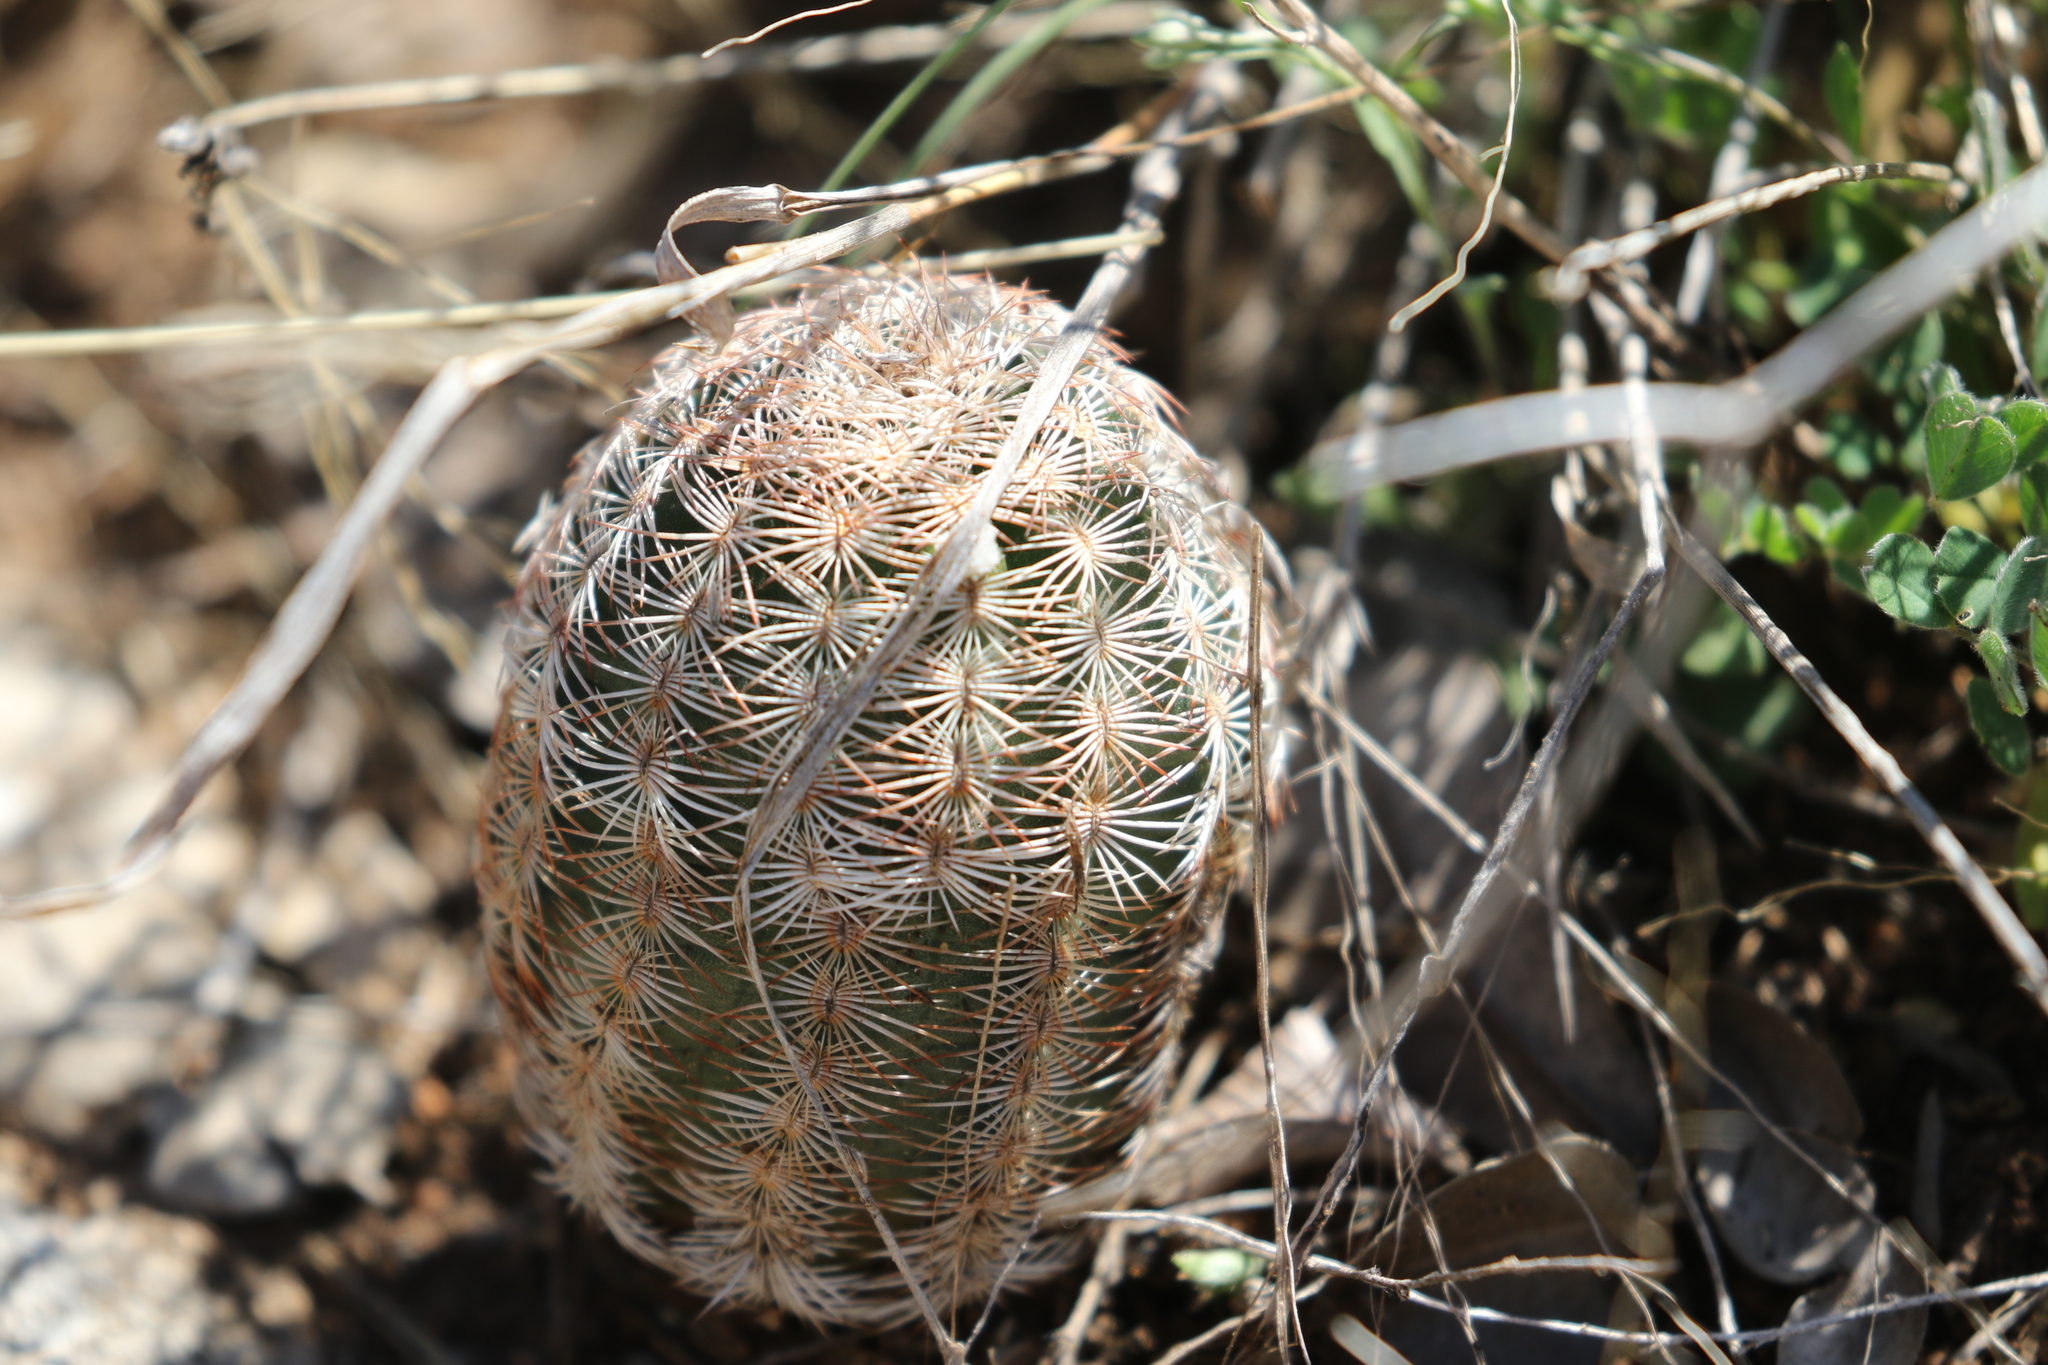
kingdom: Plantae
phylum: Tracheophyta
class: Magnoliopsida
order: Caryophyllales
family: Cactaceae
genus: Echinocereus
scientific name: Echinocereus reichenbachii
